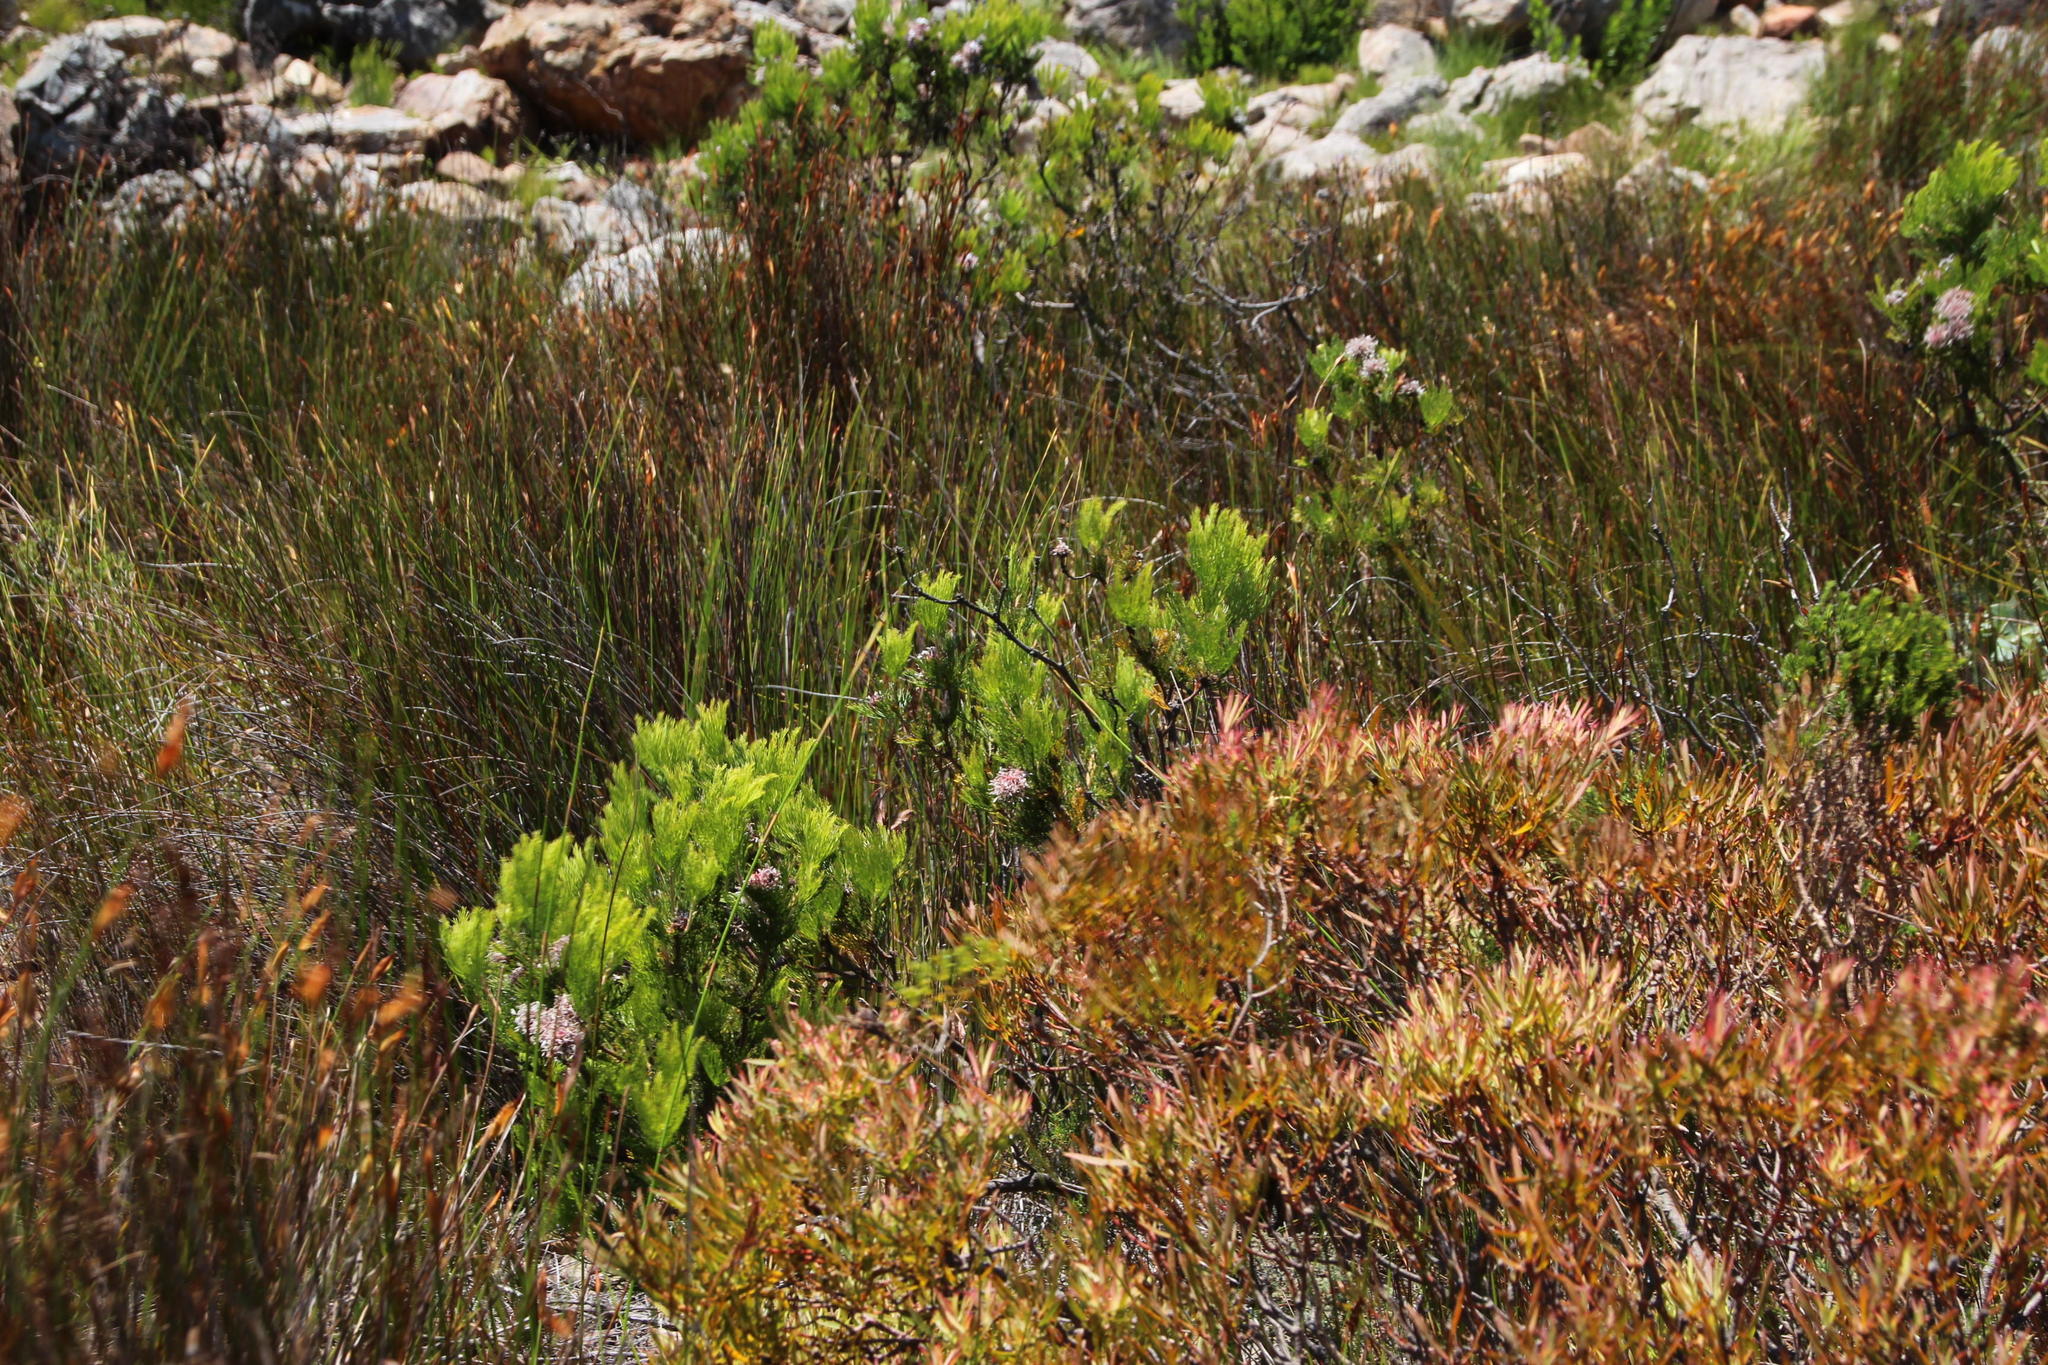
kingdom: Plantae
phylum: Tracheophyta
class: Magnoliopsida
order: Proteales
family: Proteaceae
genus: Serruria
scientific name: Serruria acrocarpa
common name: Common rootstock spiderhead
